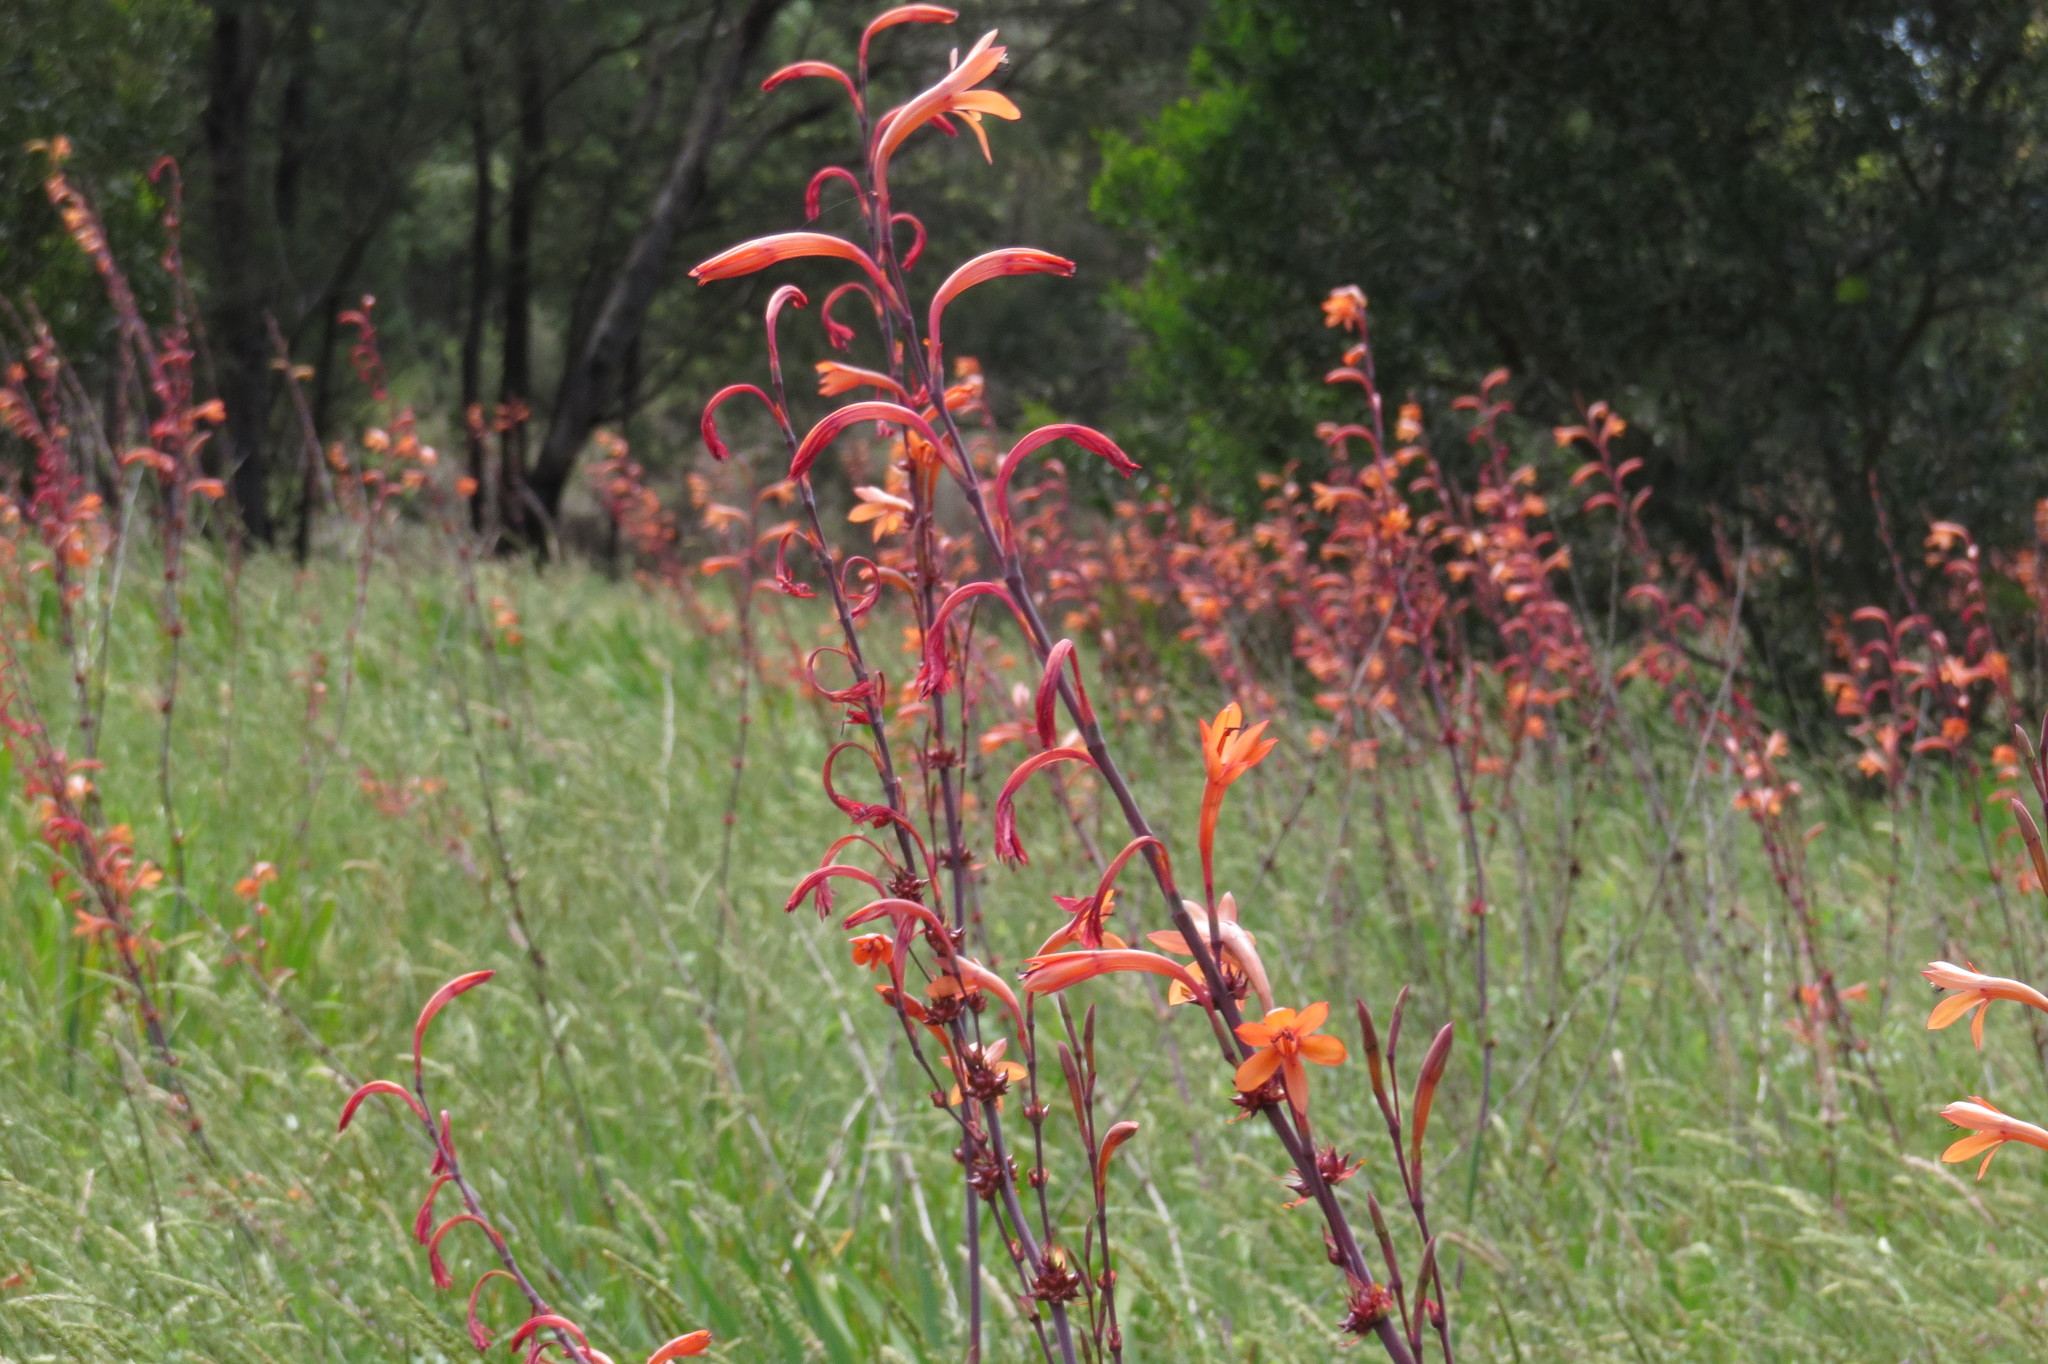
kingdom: Plantae
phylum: Tracheophyta
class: Liliopsida
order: Asparagales
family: Iridaceae
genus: Watsonia
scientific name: Watsonia meriana
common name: Bulbil bugle-lily
